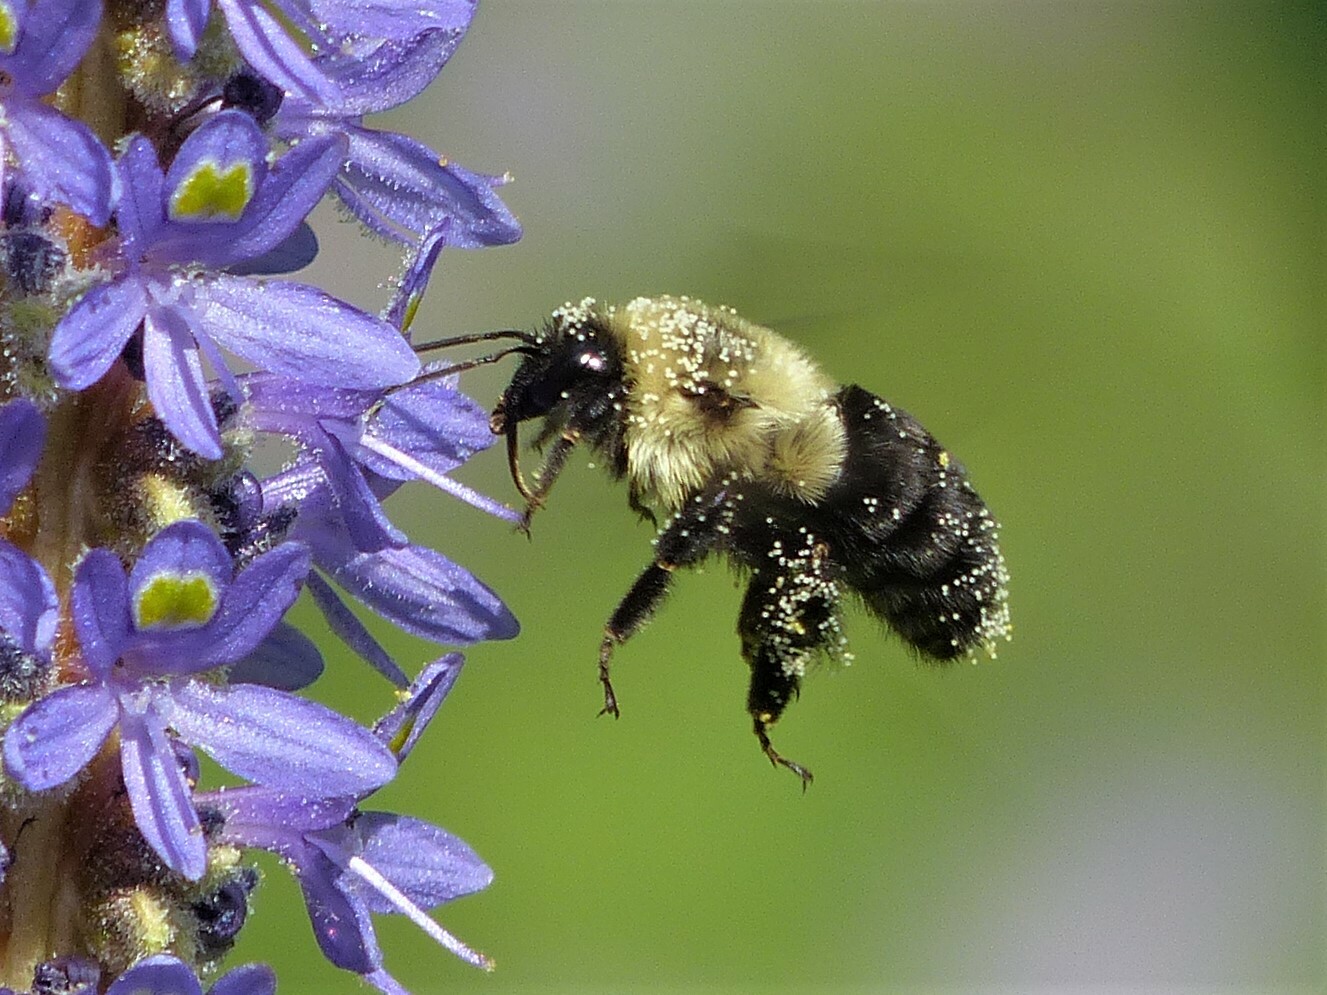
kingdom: Animalia
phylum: Arthropoda
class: Insecta
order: Hymenoptera
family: Apidae
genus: Bombus
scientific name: Bombus impatiens
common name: Common eastern bumble bee
